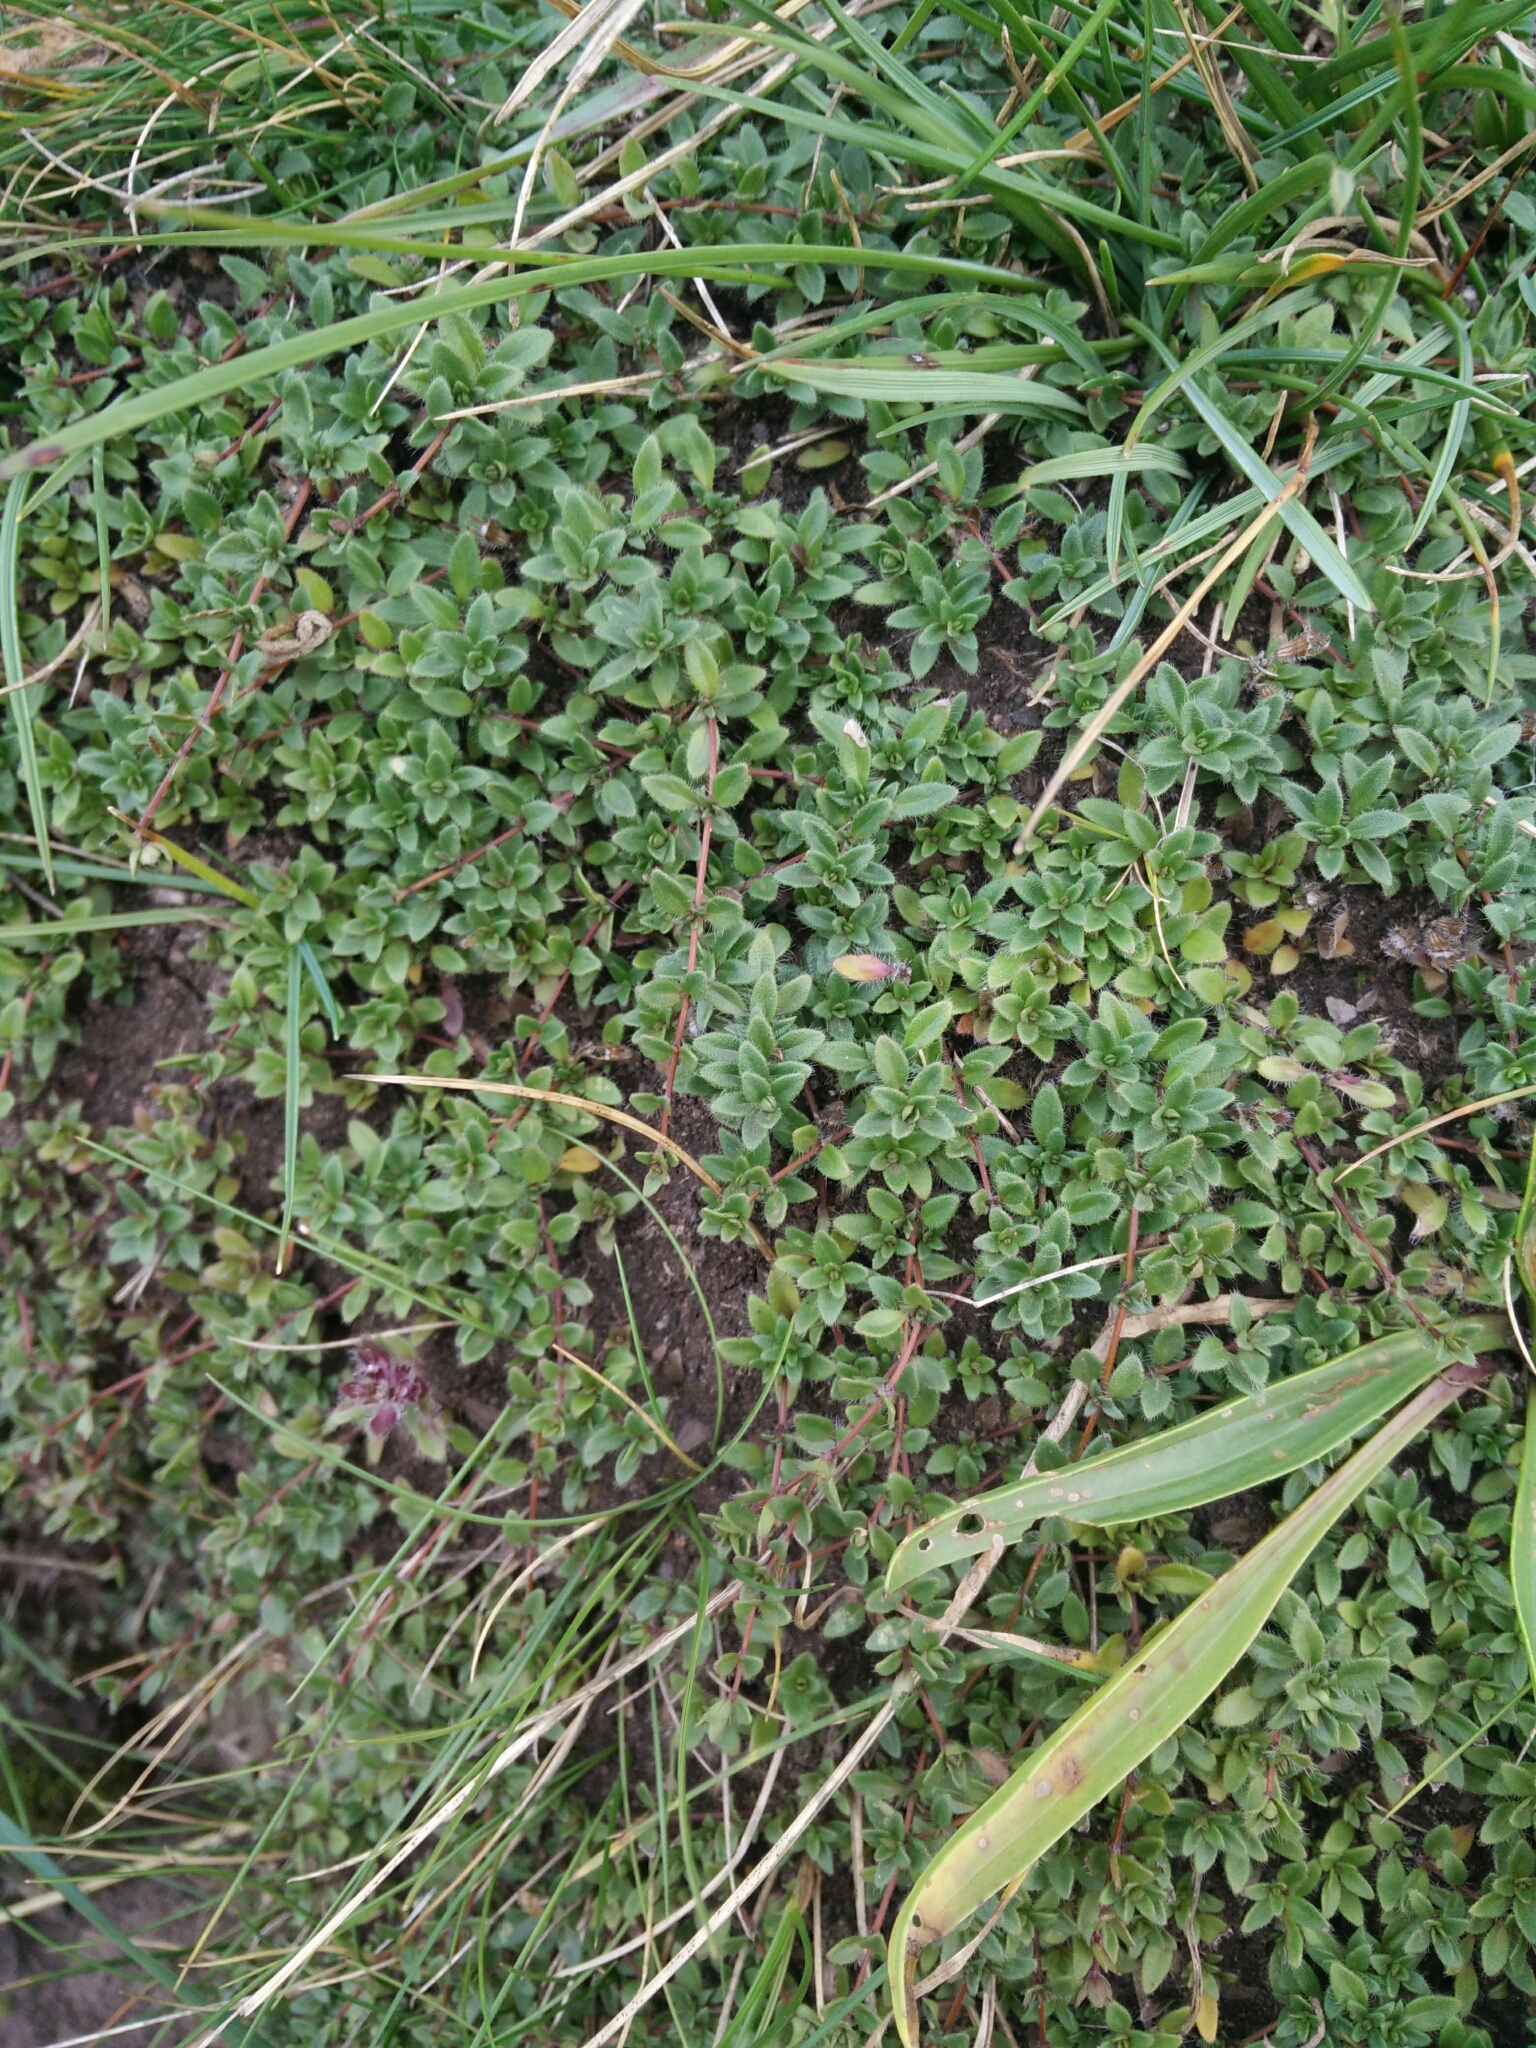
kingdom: Plantae
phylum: Tracheophyta
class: Magnoliopsida
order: Lamiales
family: Lamiaceae
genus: Thymus
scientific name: Thymus praecox
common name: Wild thyme
